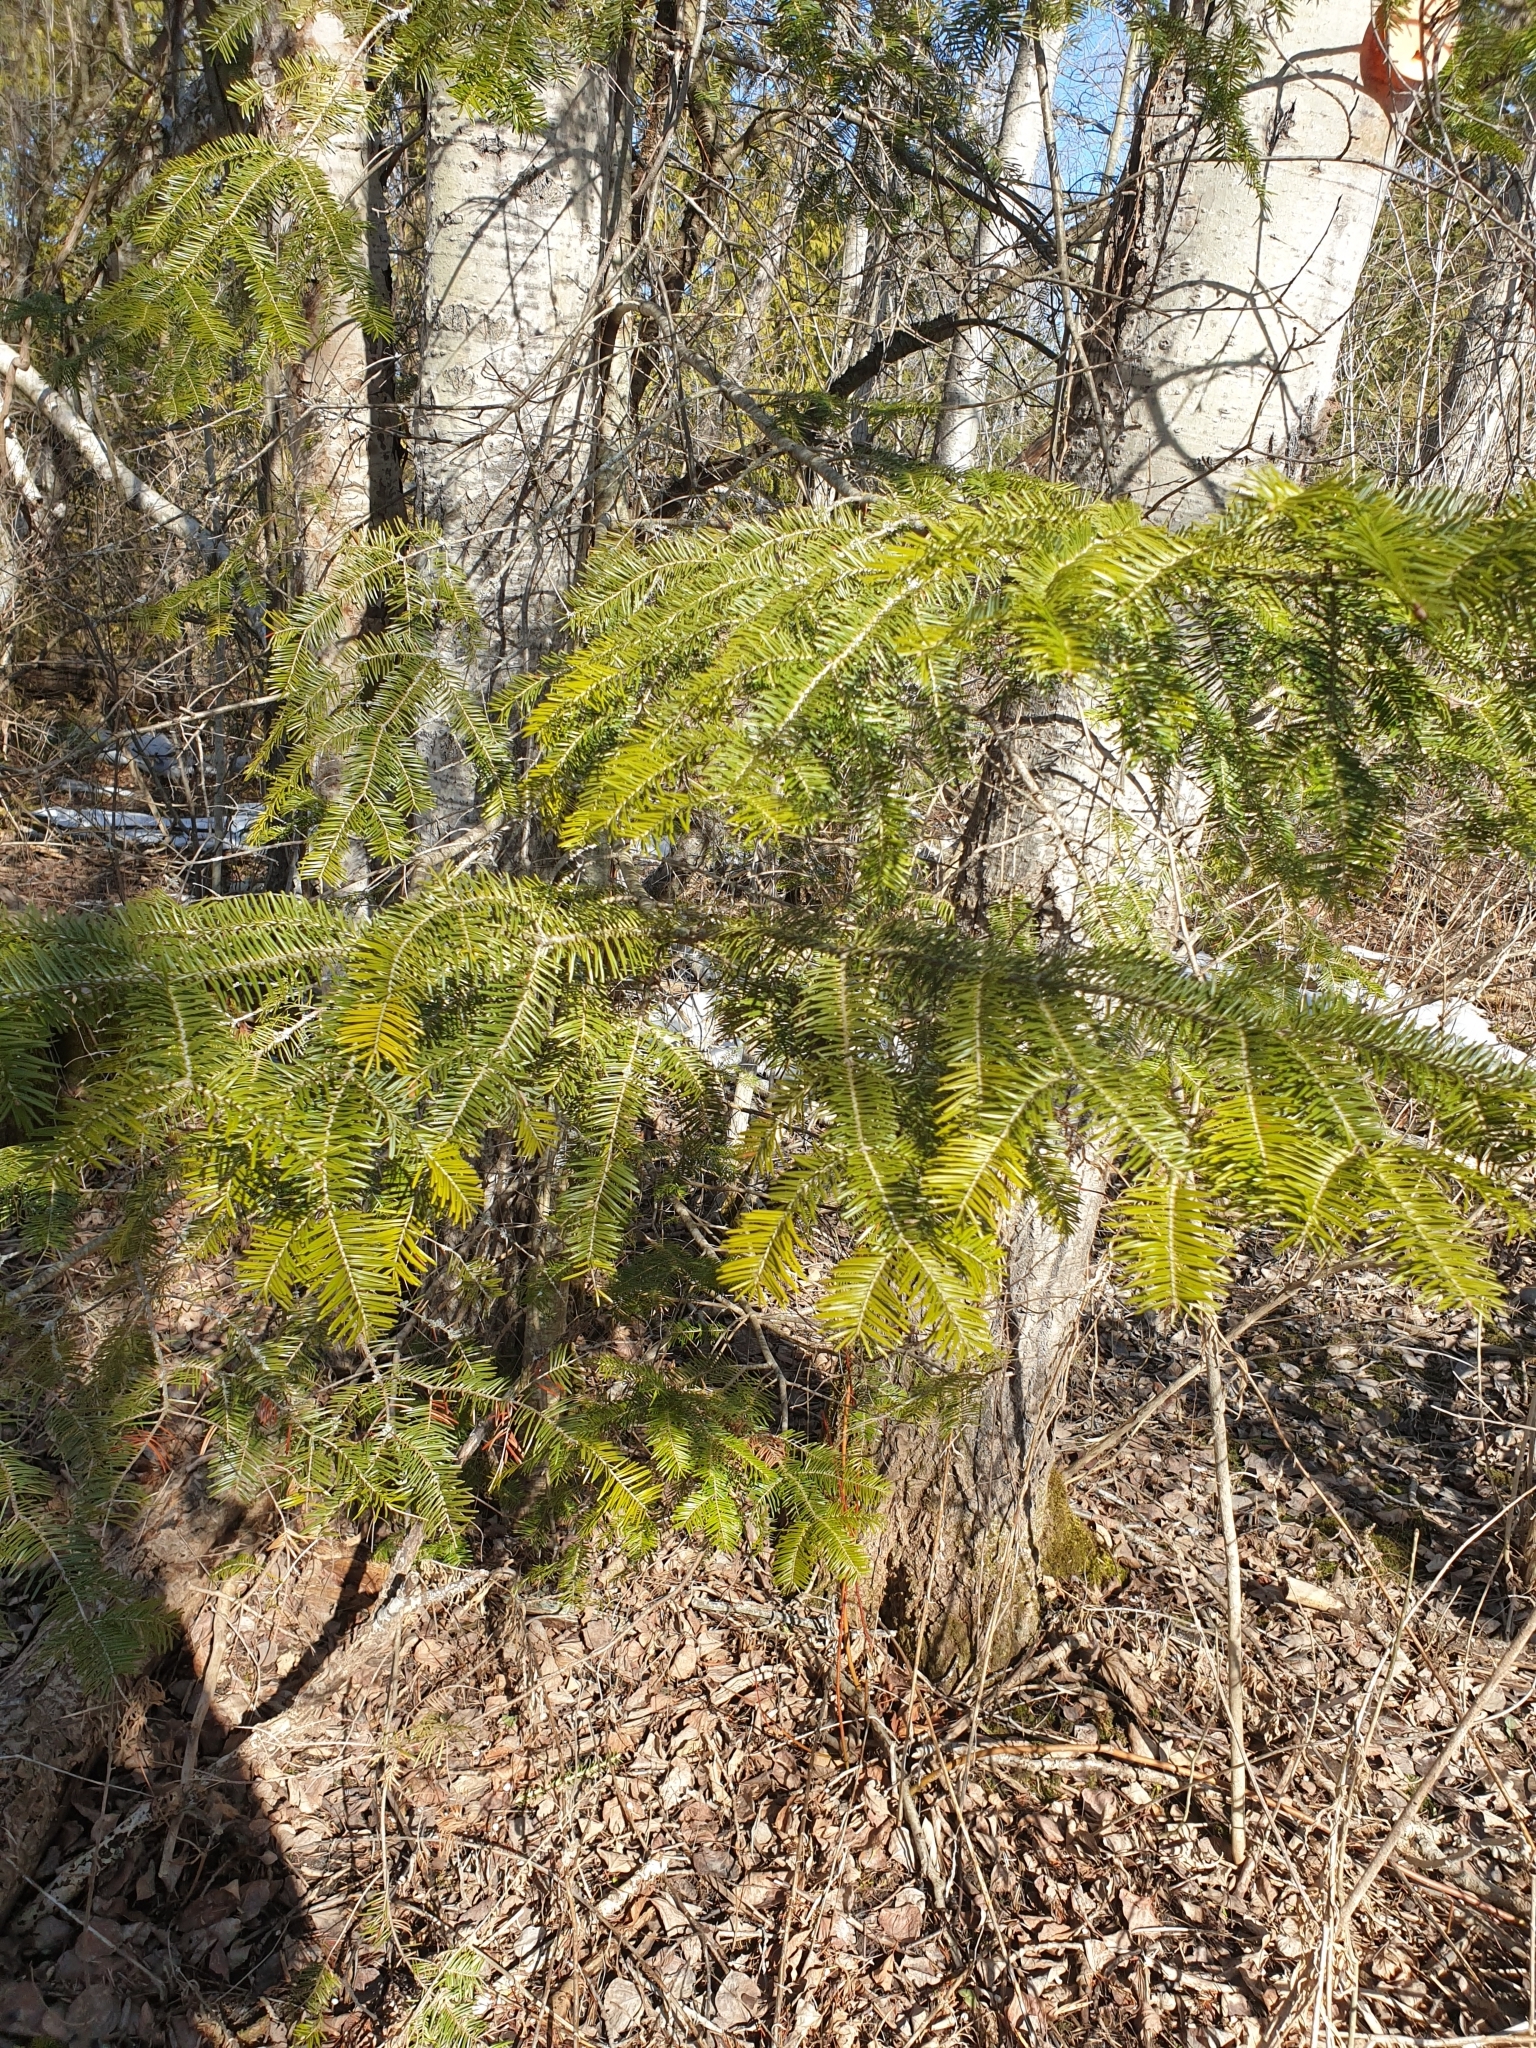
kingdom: Plantae
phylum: Tracheophyta
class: Pinopsida
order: Pinales
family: Pinaceae
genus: Abies
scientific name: Abies balsamea
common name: Balsam fir
